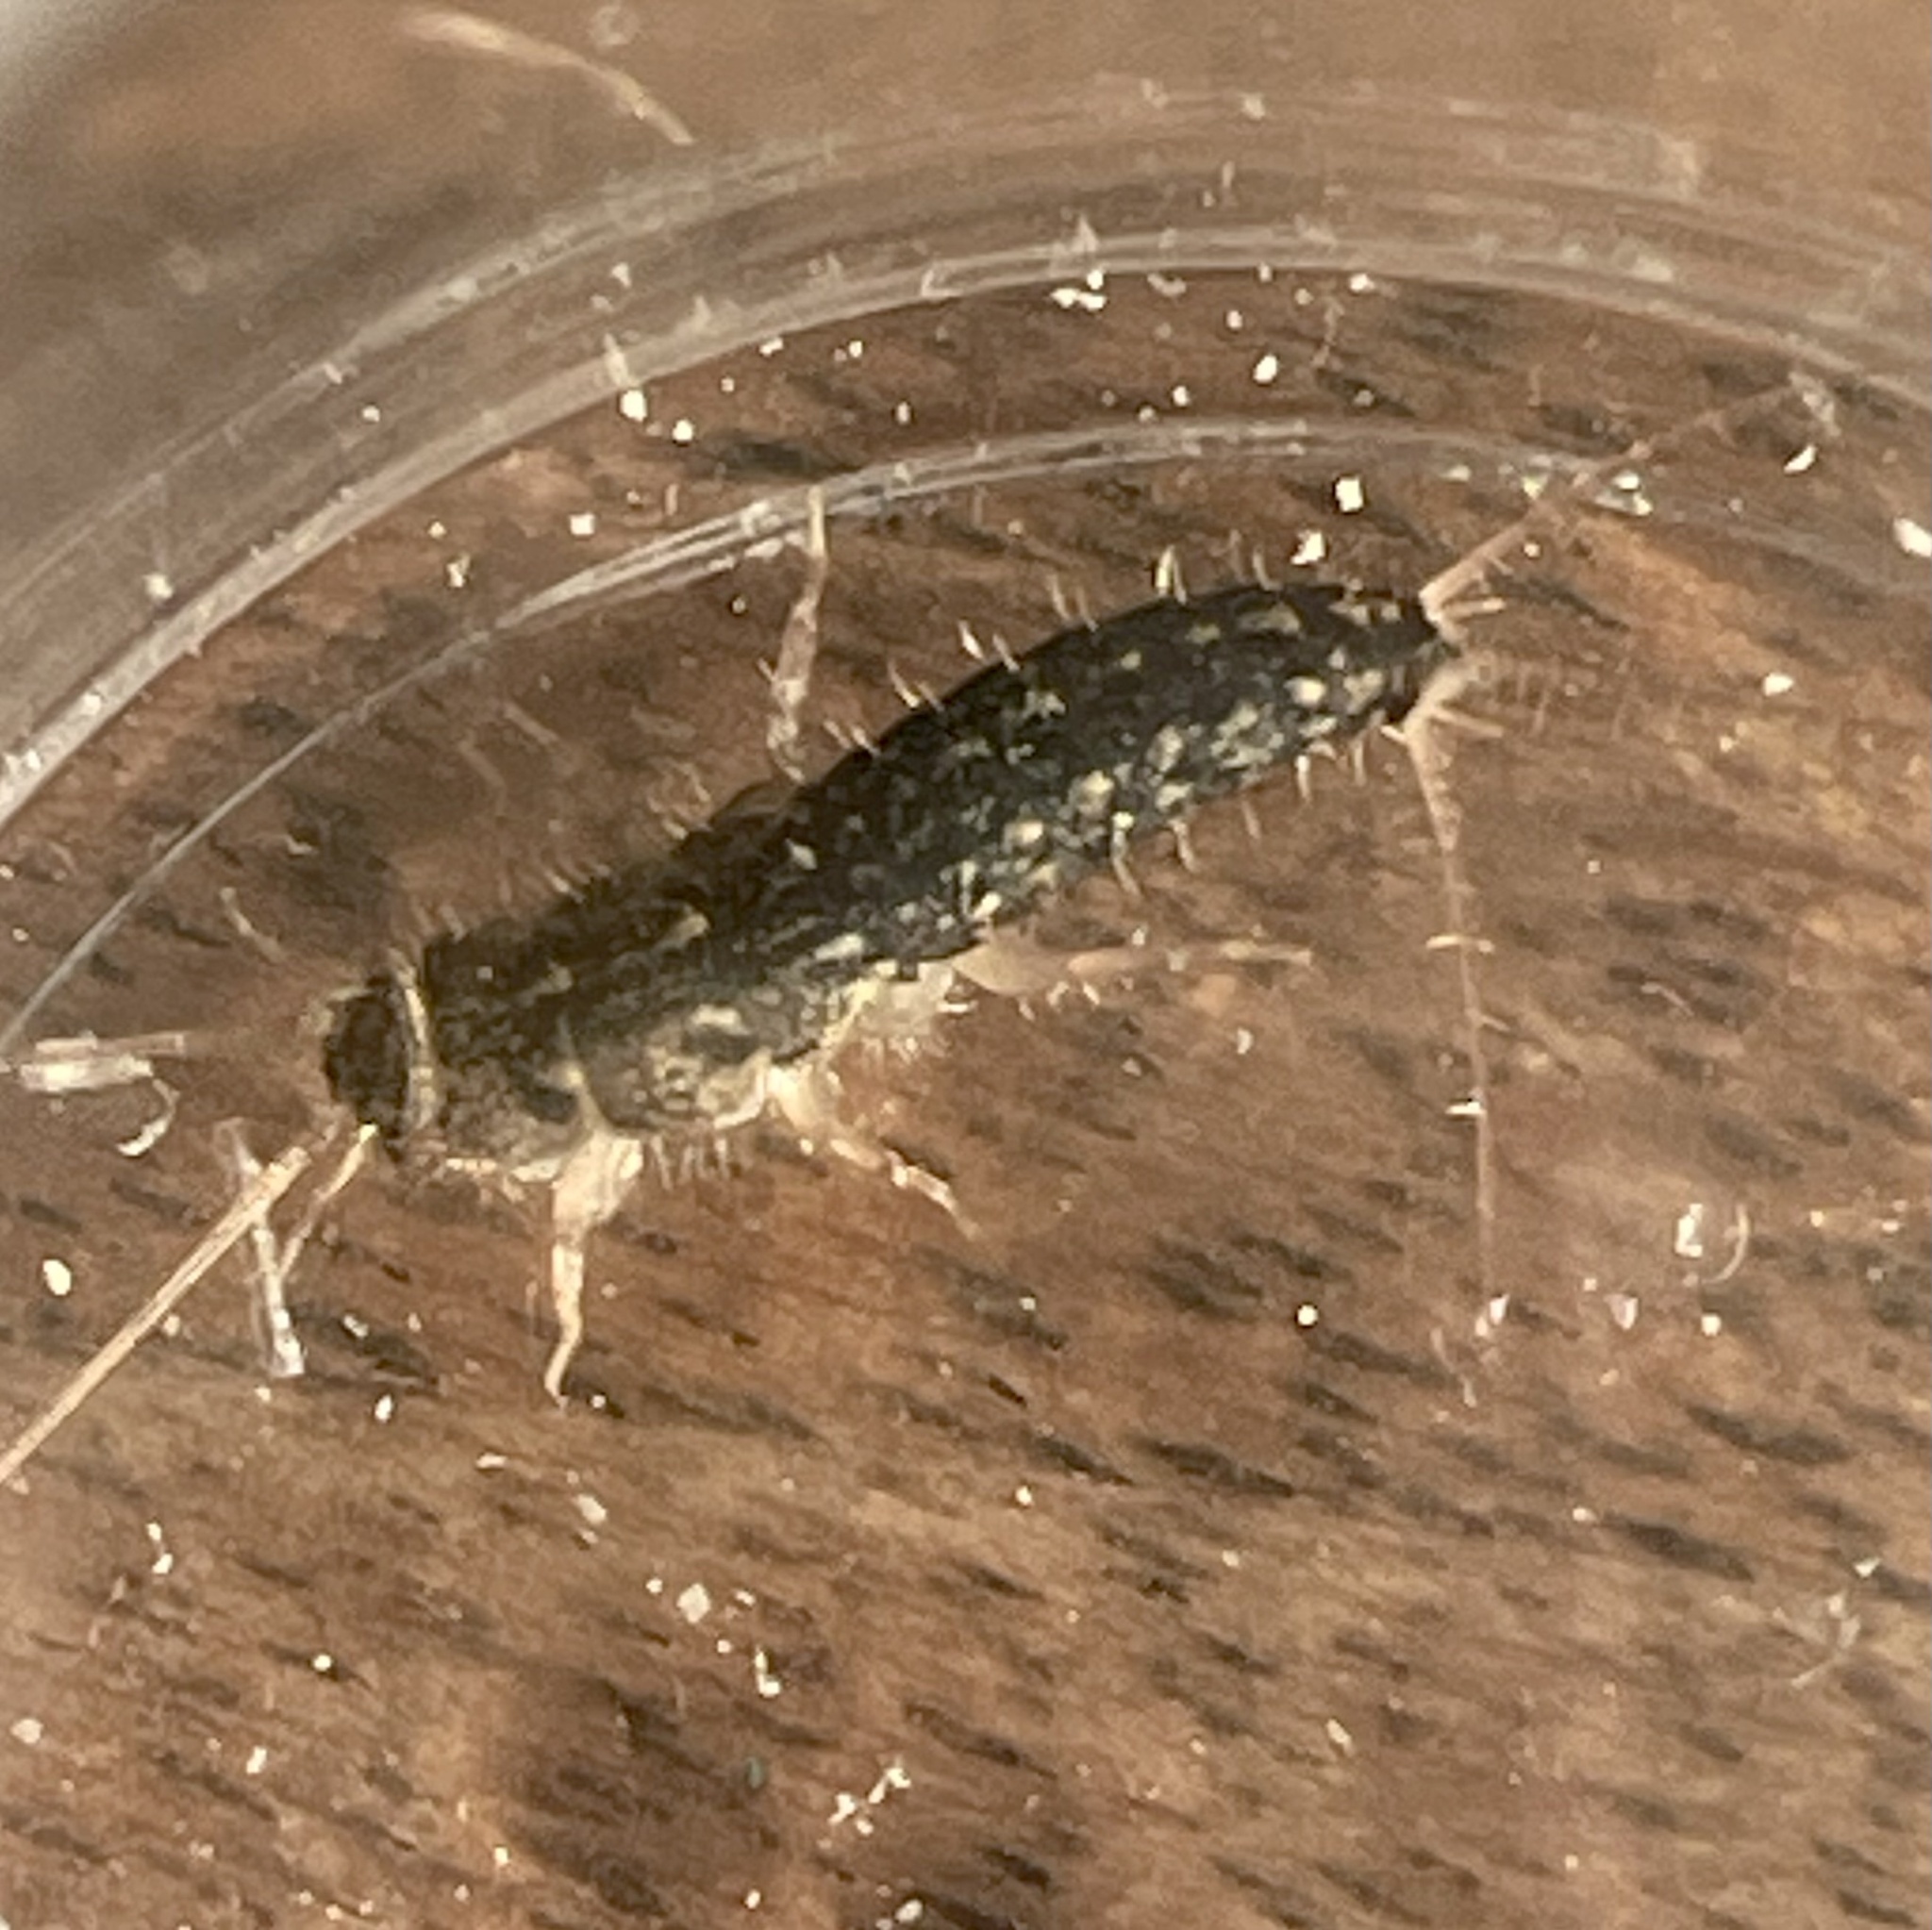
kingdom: Animalia
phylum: Arthropoda
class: Insecta
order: Zygentoma
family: Lepismatidae
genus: Ctenolepisma
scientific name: Ctenolepisma lineata
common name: Four-lined silverfish
